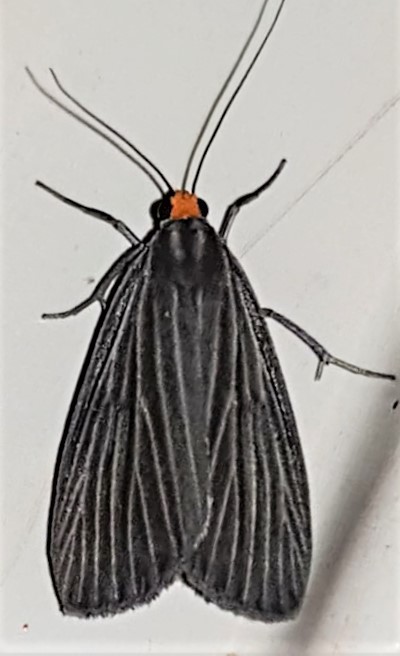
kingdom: Animalia
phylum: Arthropoda
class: Insecta
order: Lepidoptera
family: Notodontidae
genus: Scotura
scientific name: Scotura intermedia
